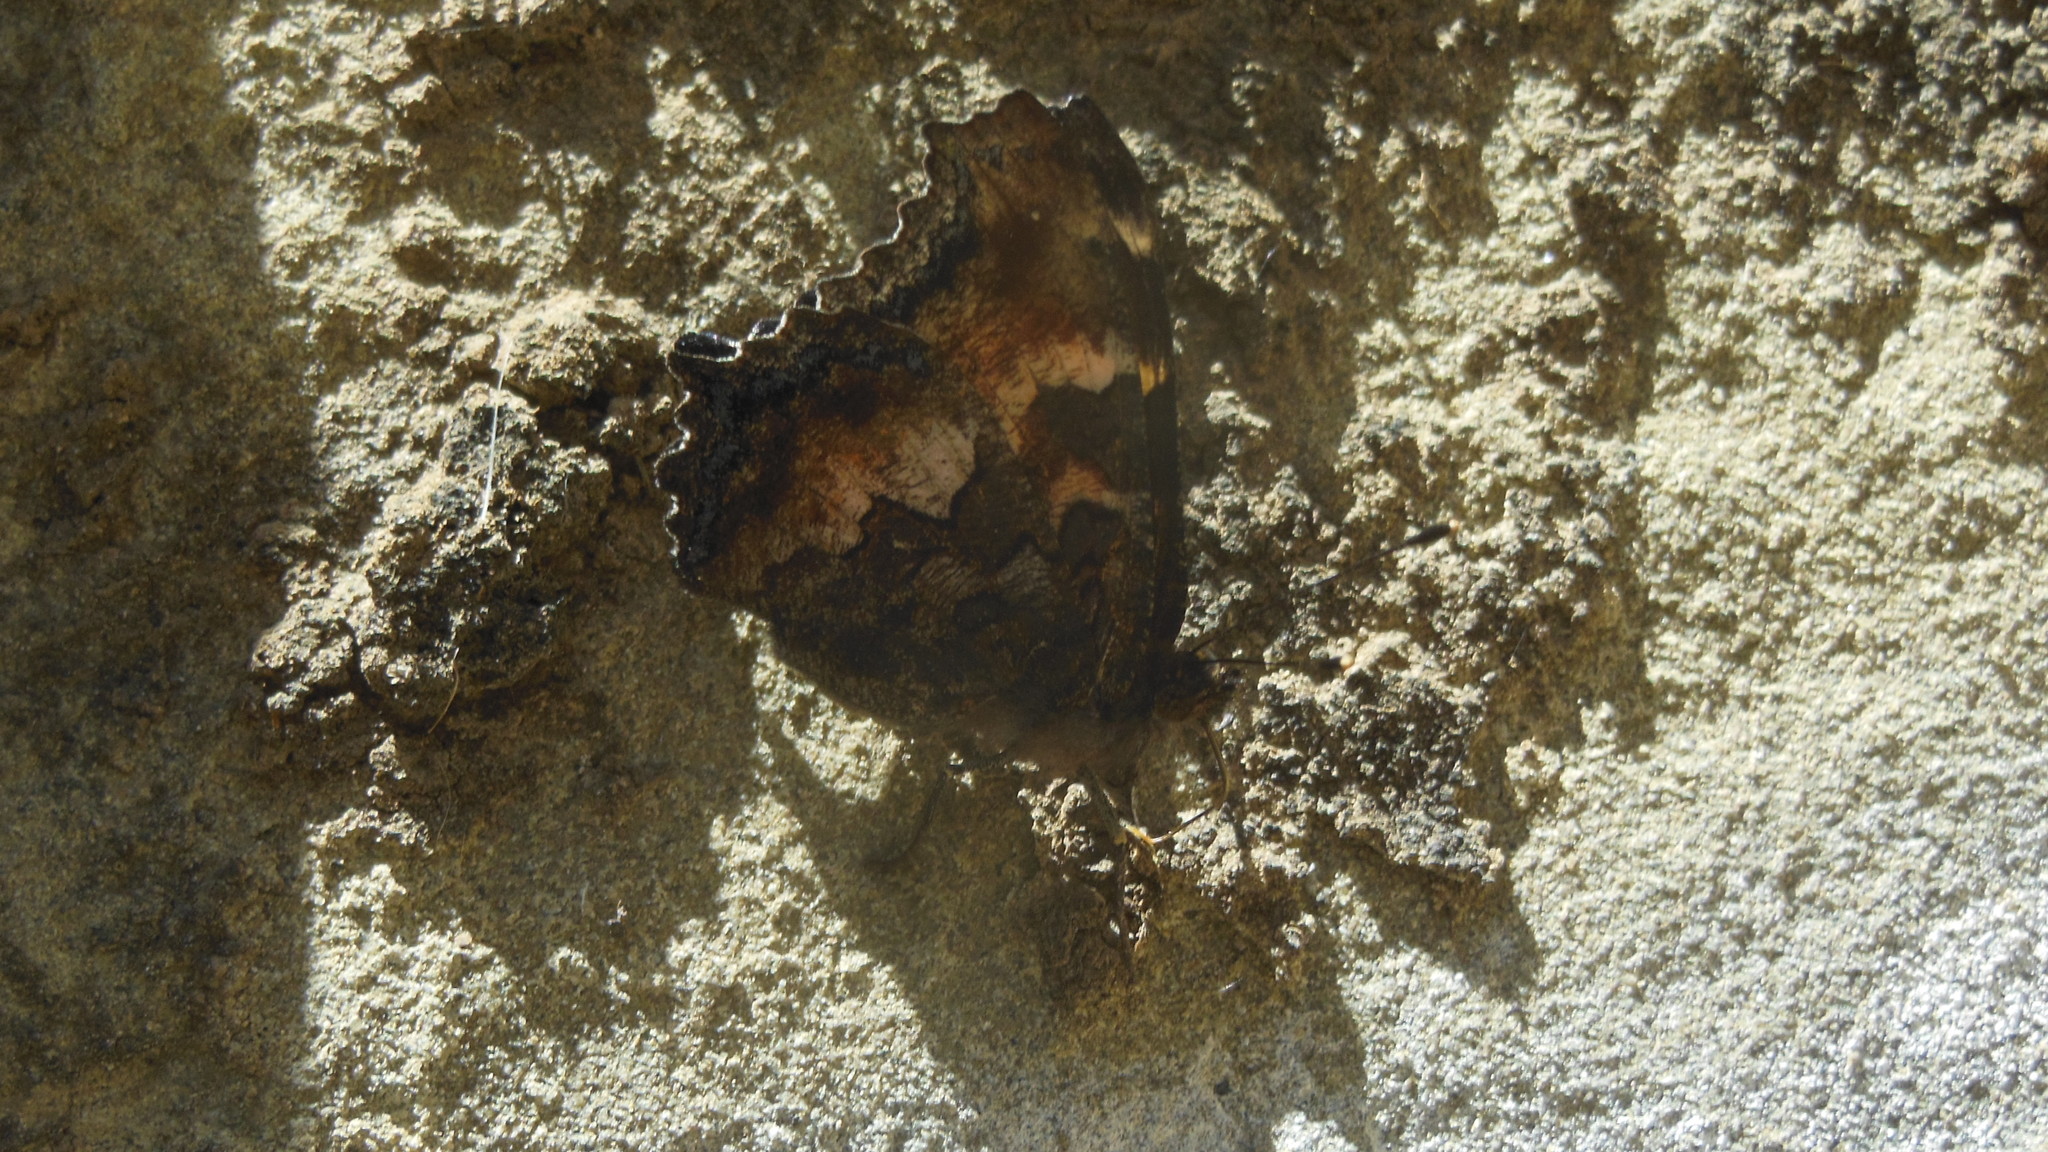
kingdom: Animalia
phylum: Arthropoda
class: Insecta
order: Lepidoptera
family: Nymphalidae
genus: Nymphalis
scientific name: Nymphalis californica
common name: California tortoiseshell
